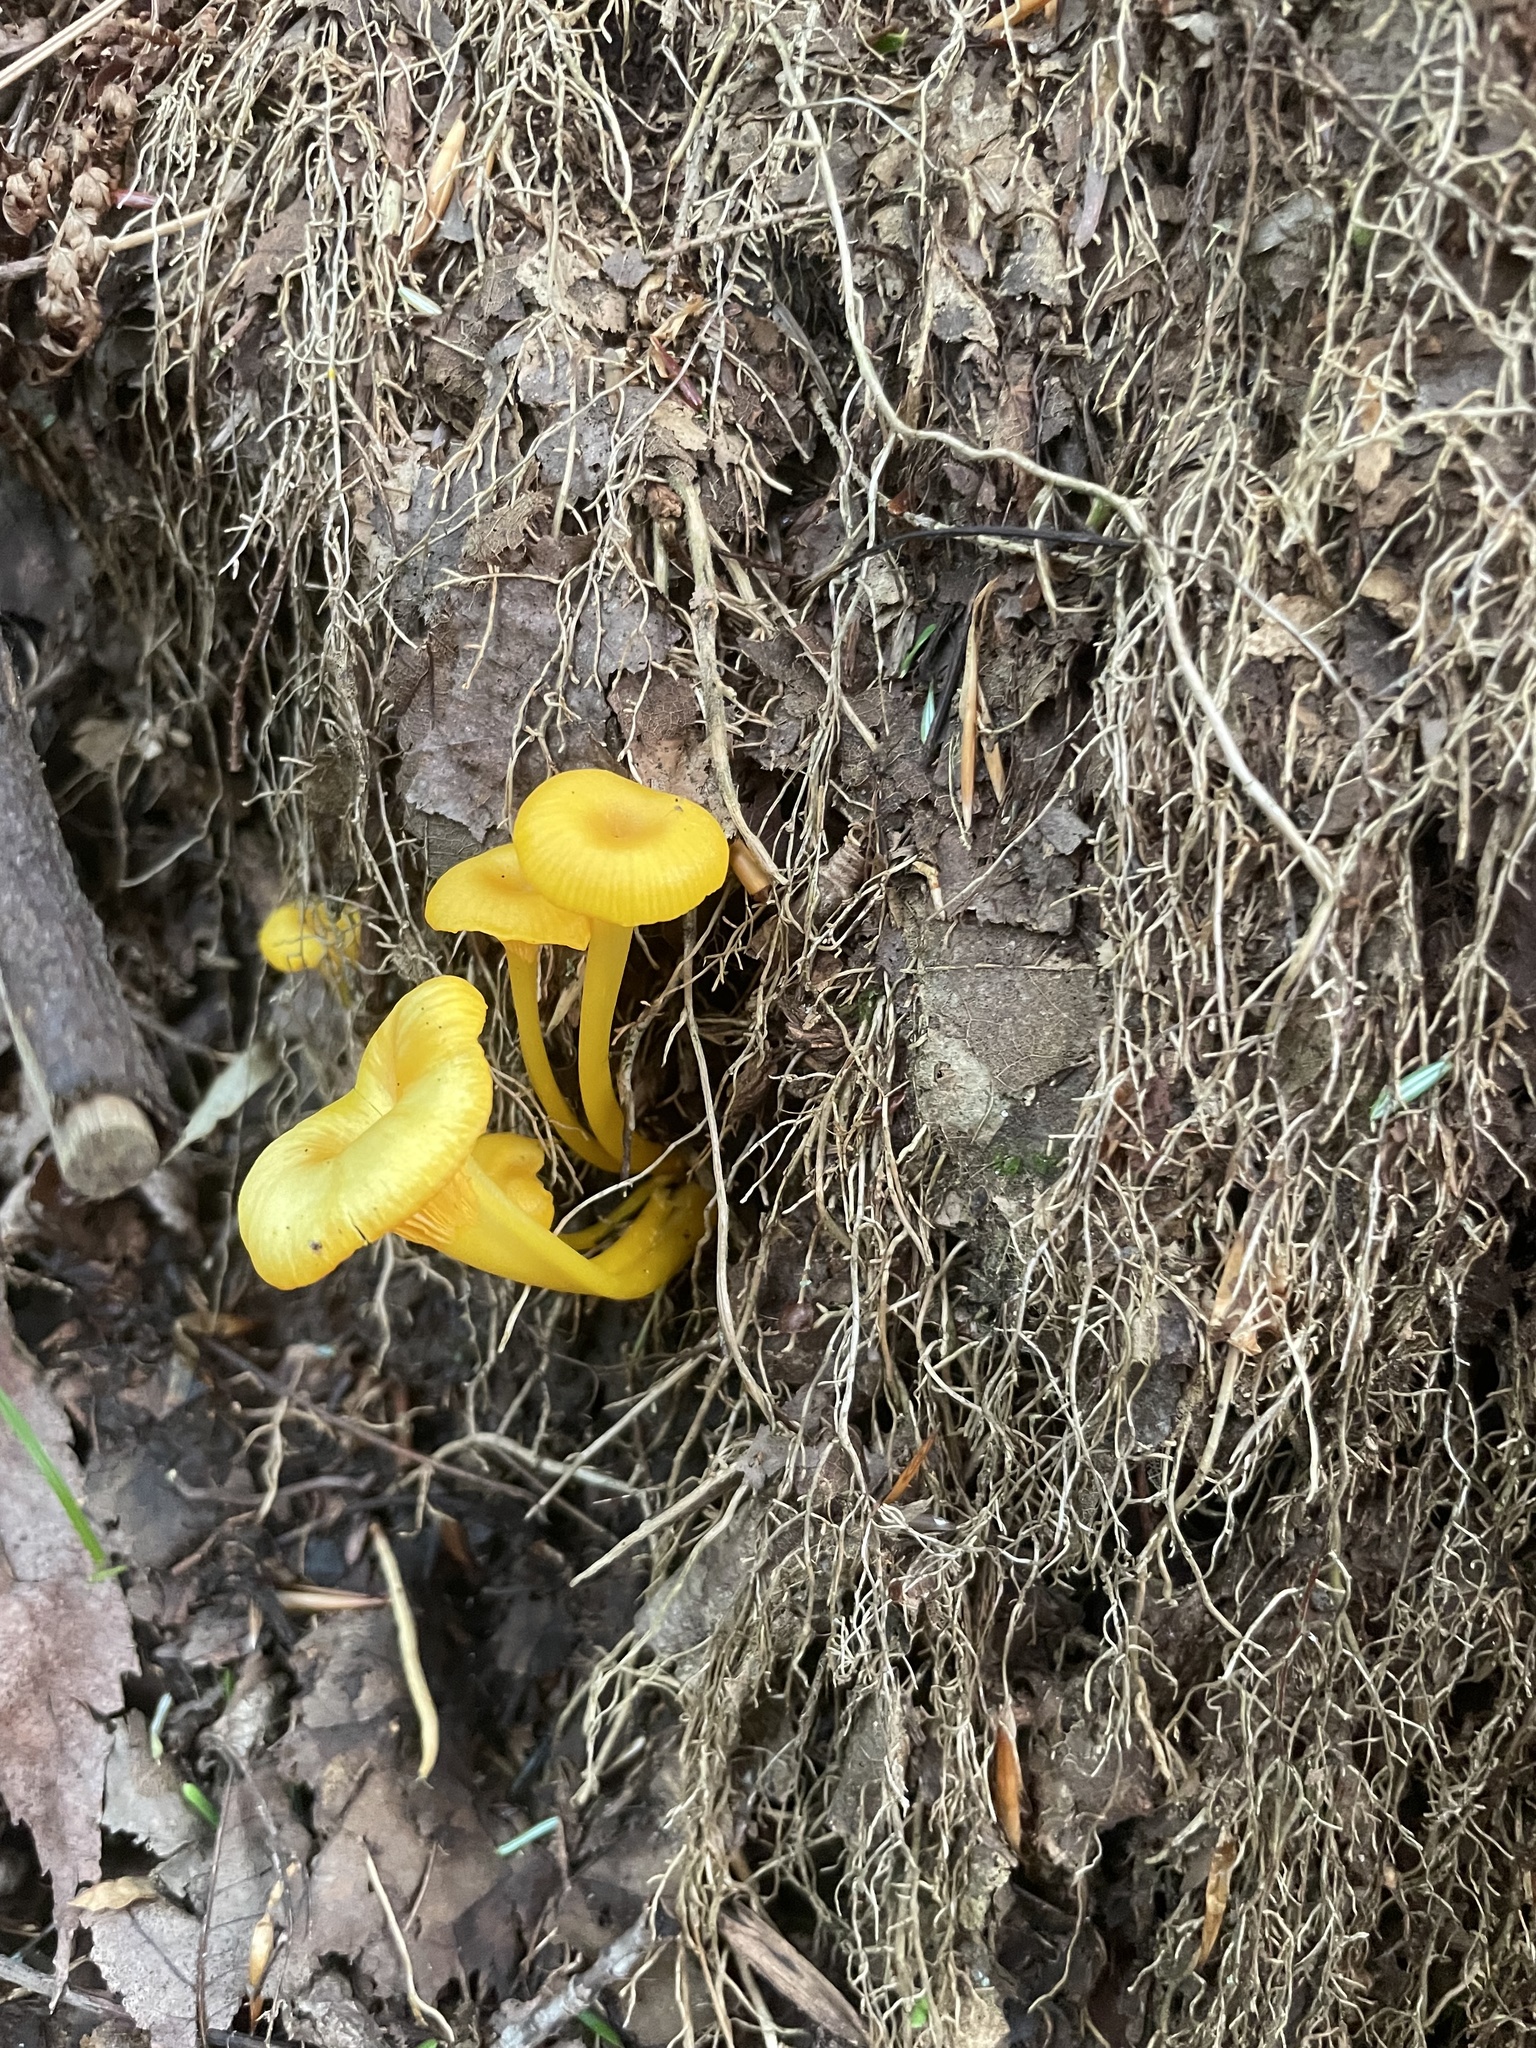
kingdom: Fungi
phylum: Basidiomycota
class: Agaricomycetes
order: Cantharellales
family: Hydnaceae
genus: Cantharellus
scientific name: Cantharellus minor
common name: Small chanterelle
